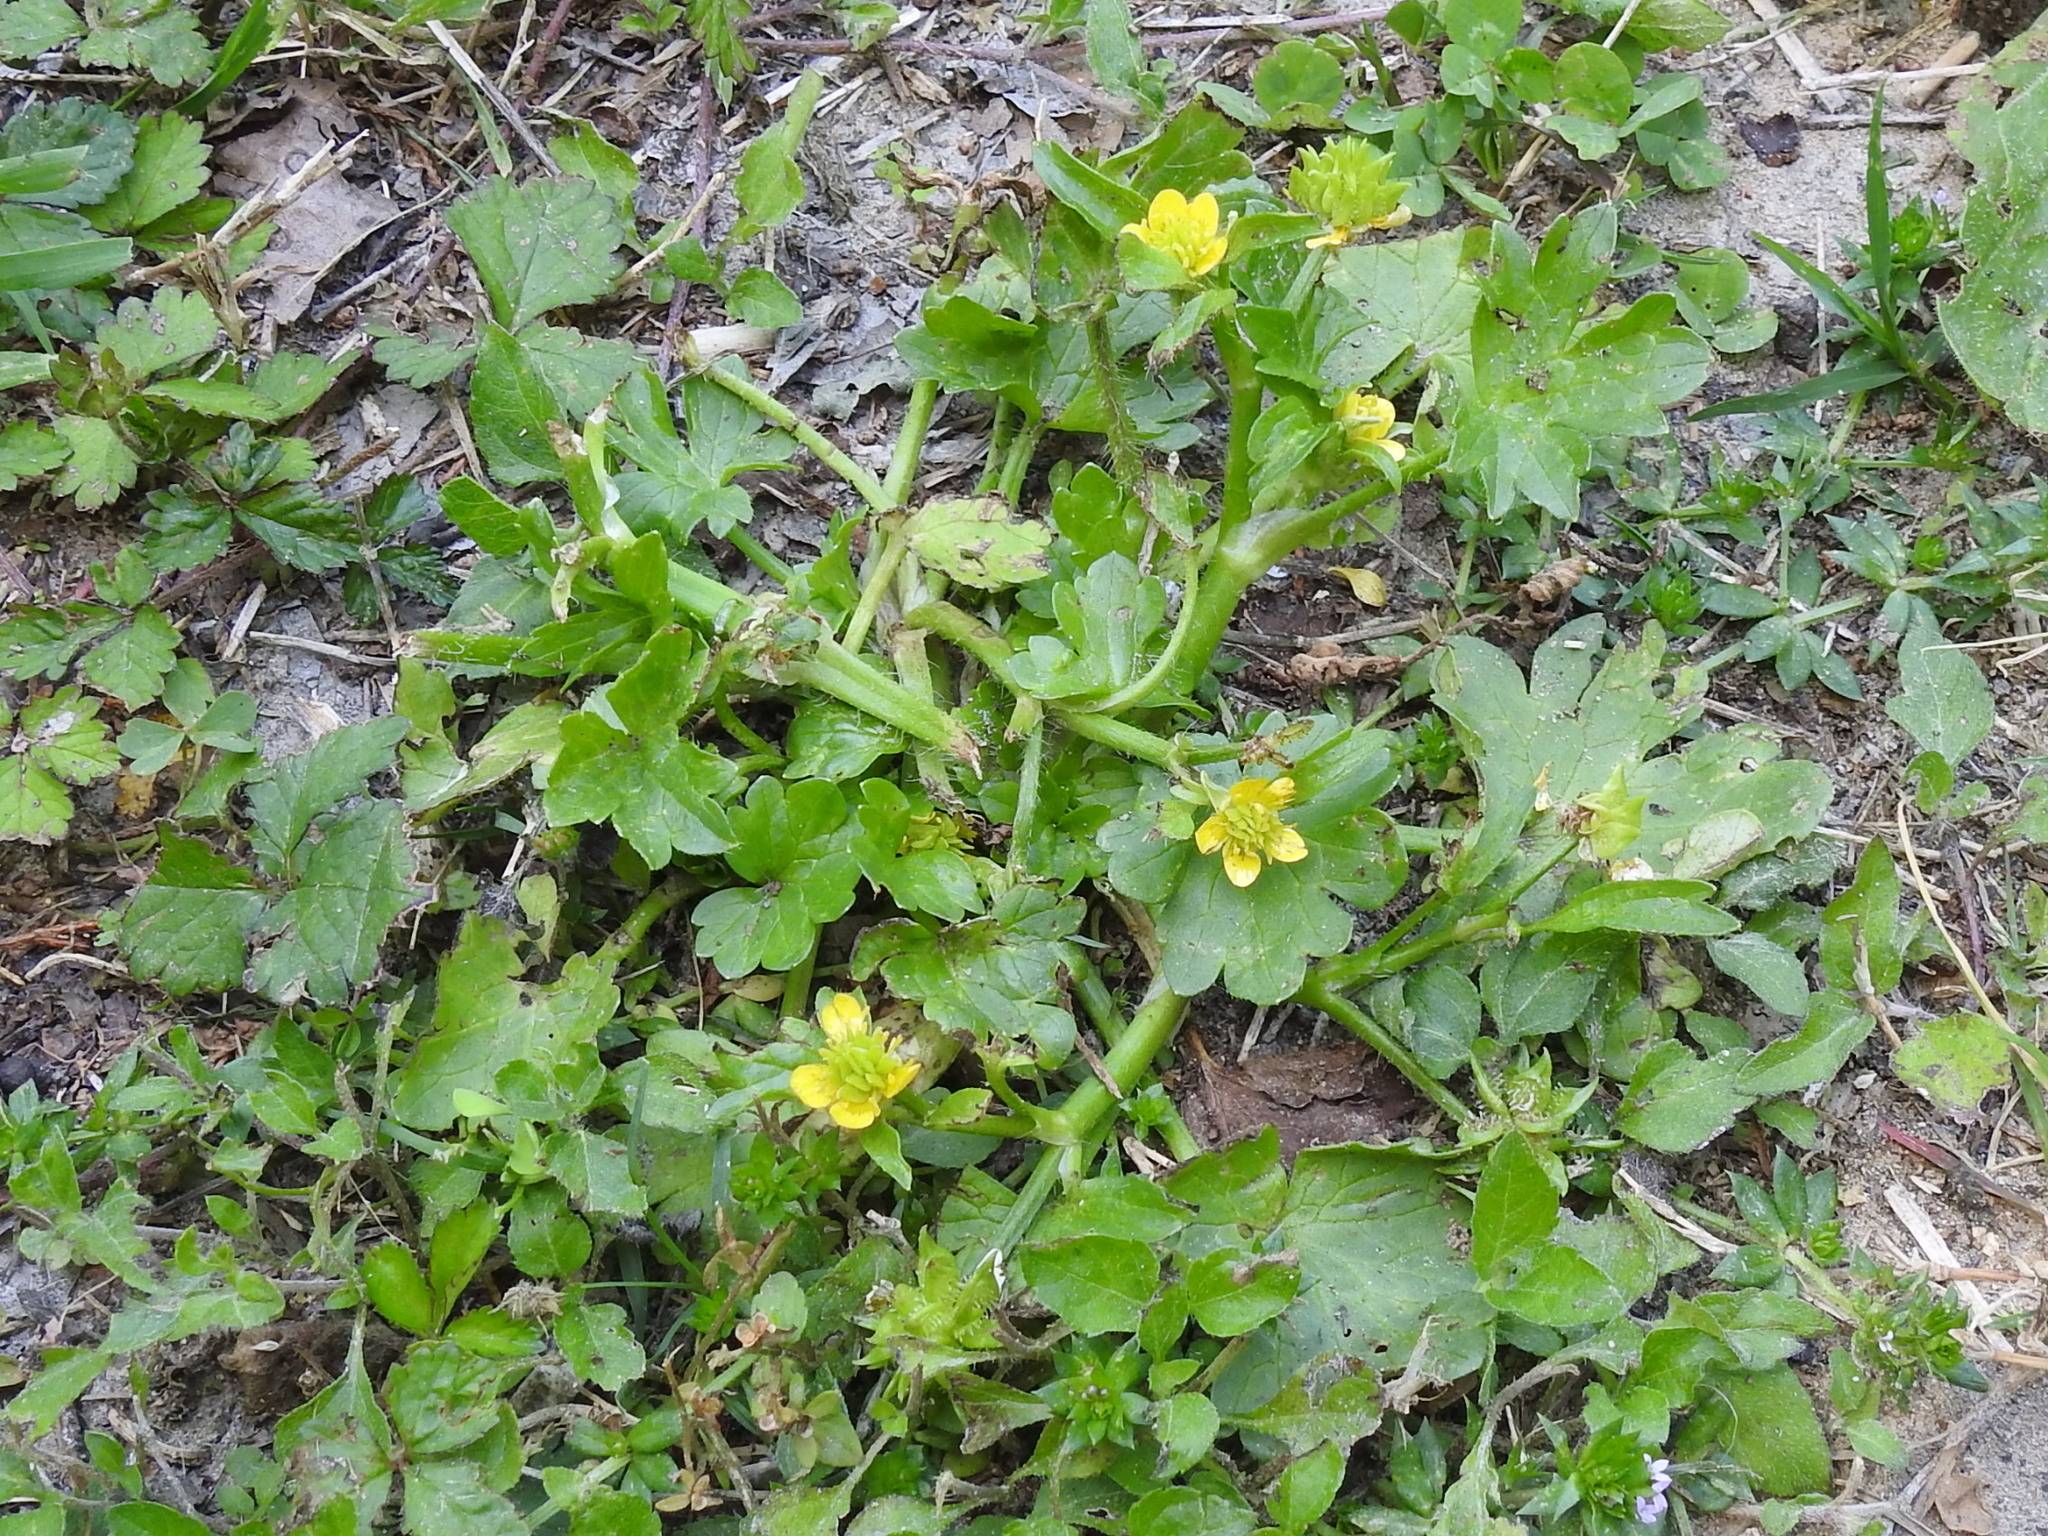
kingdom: Plantae
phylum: Tracheophyta
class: Magnoliopsida
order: Ranunculales
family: Ranunculaceae
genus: Ranunculus
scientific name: Ranunculus muricatus
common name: Rough-fruited buttercup
